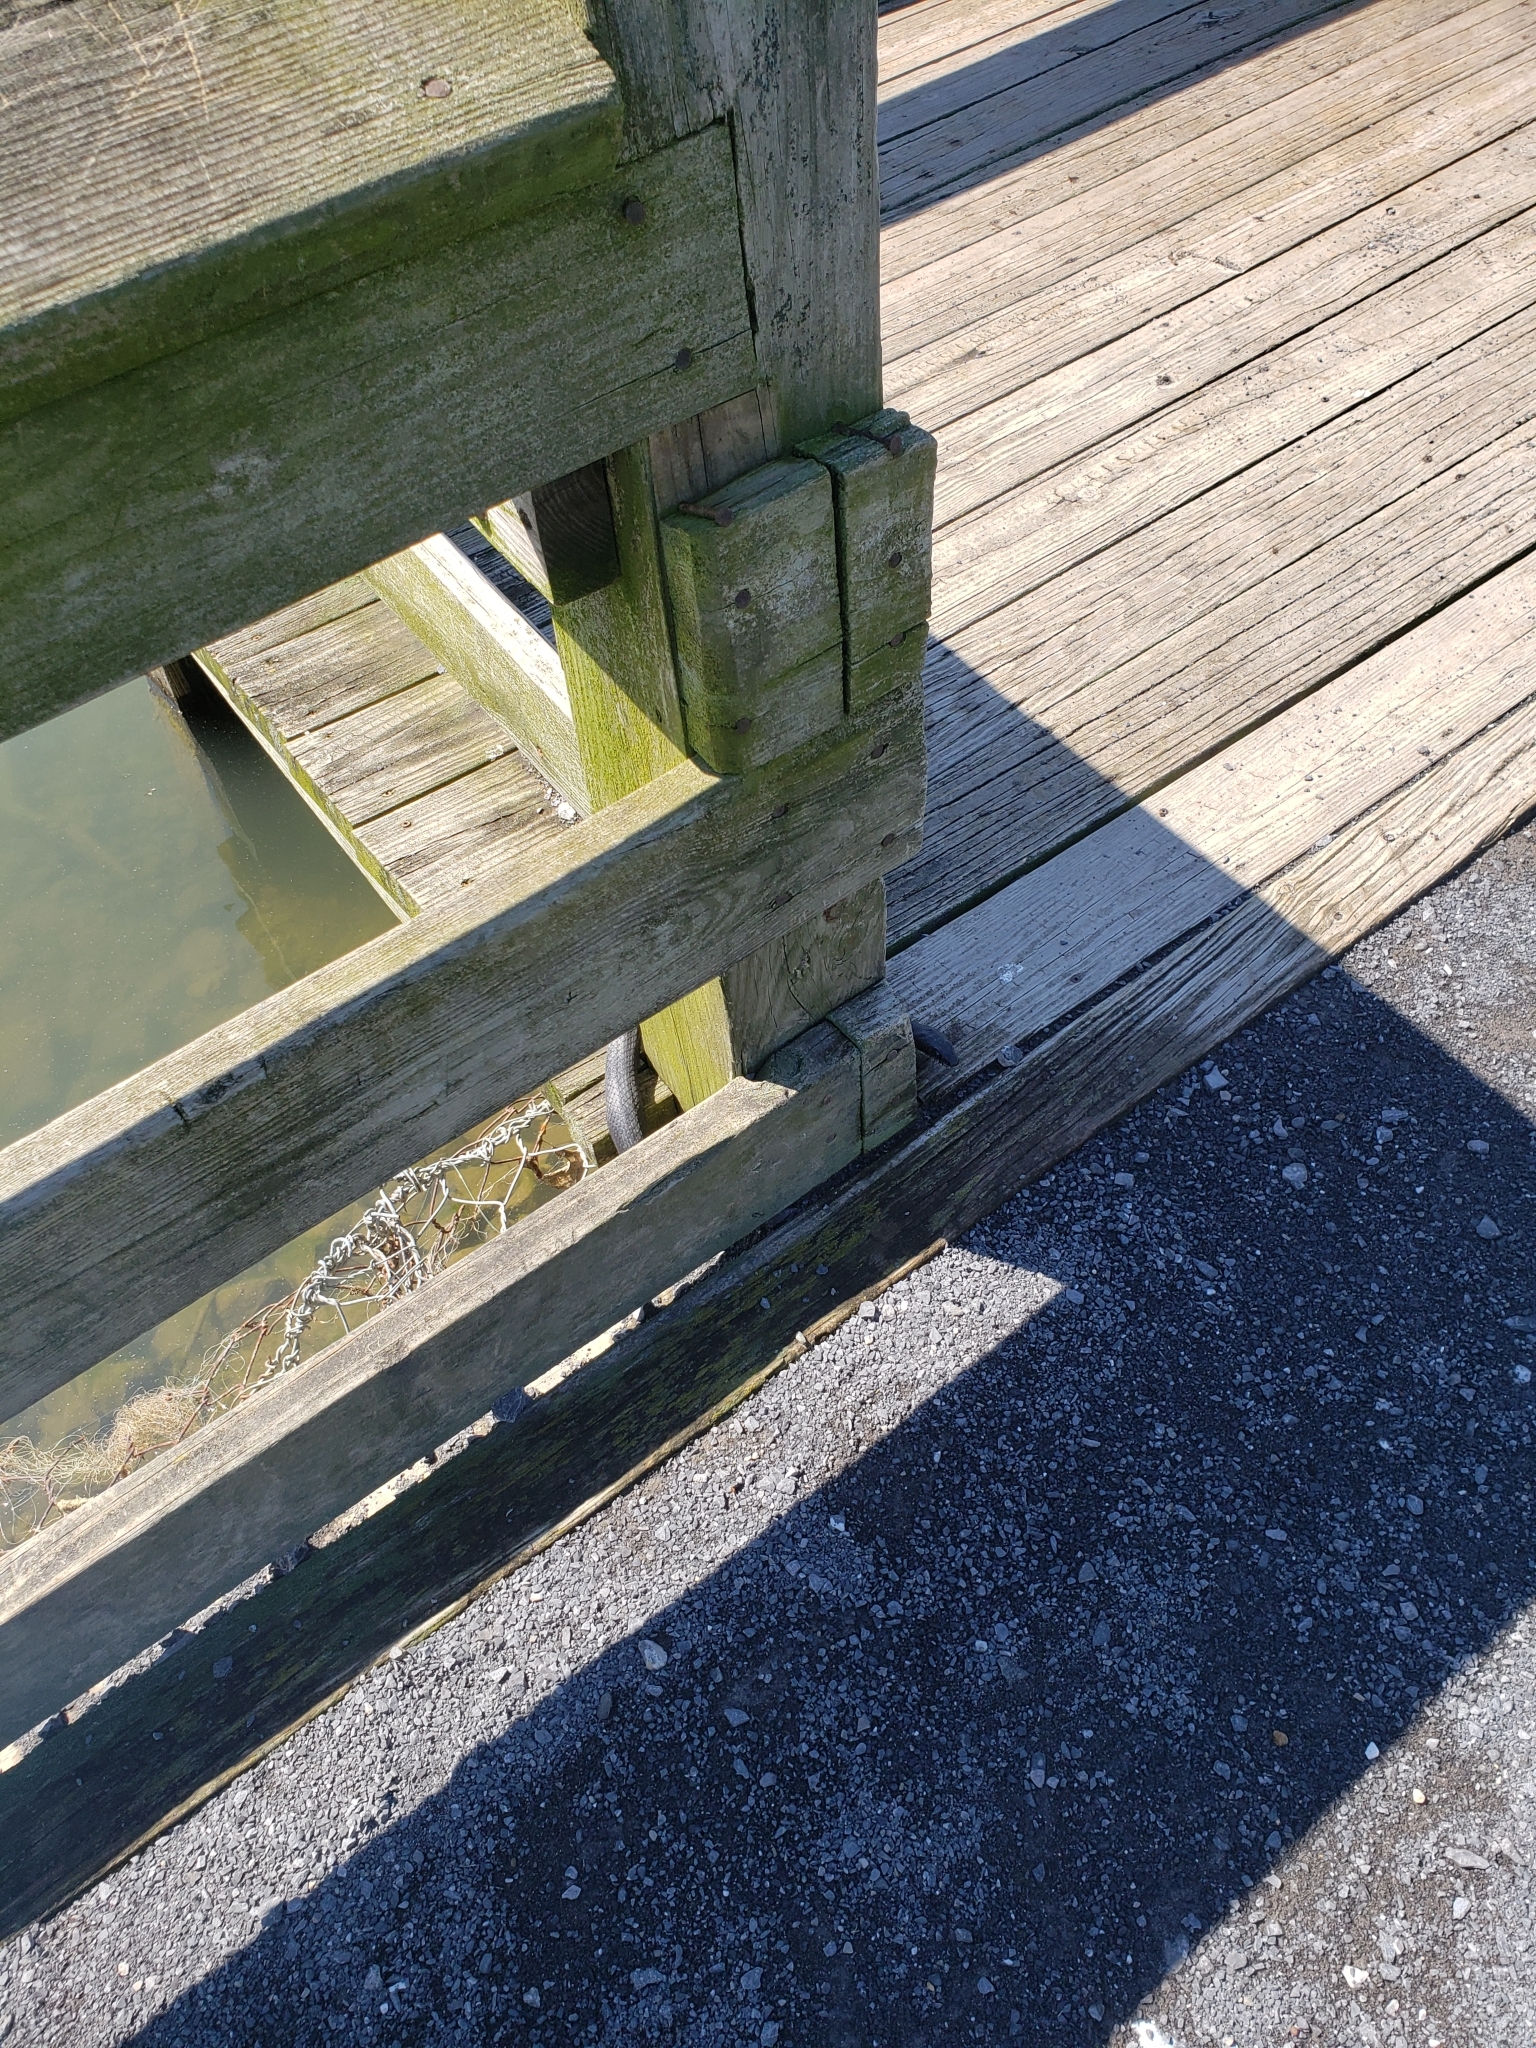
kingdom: Animalia
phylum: Chordata
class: Squamata
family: Colubridae
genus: Pantherophis
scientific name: Pantherophis alleghaniensis
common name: Eastern rat snake
